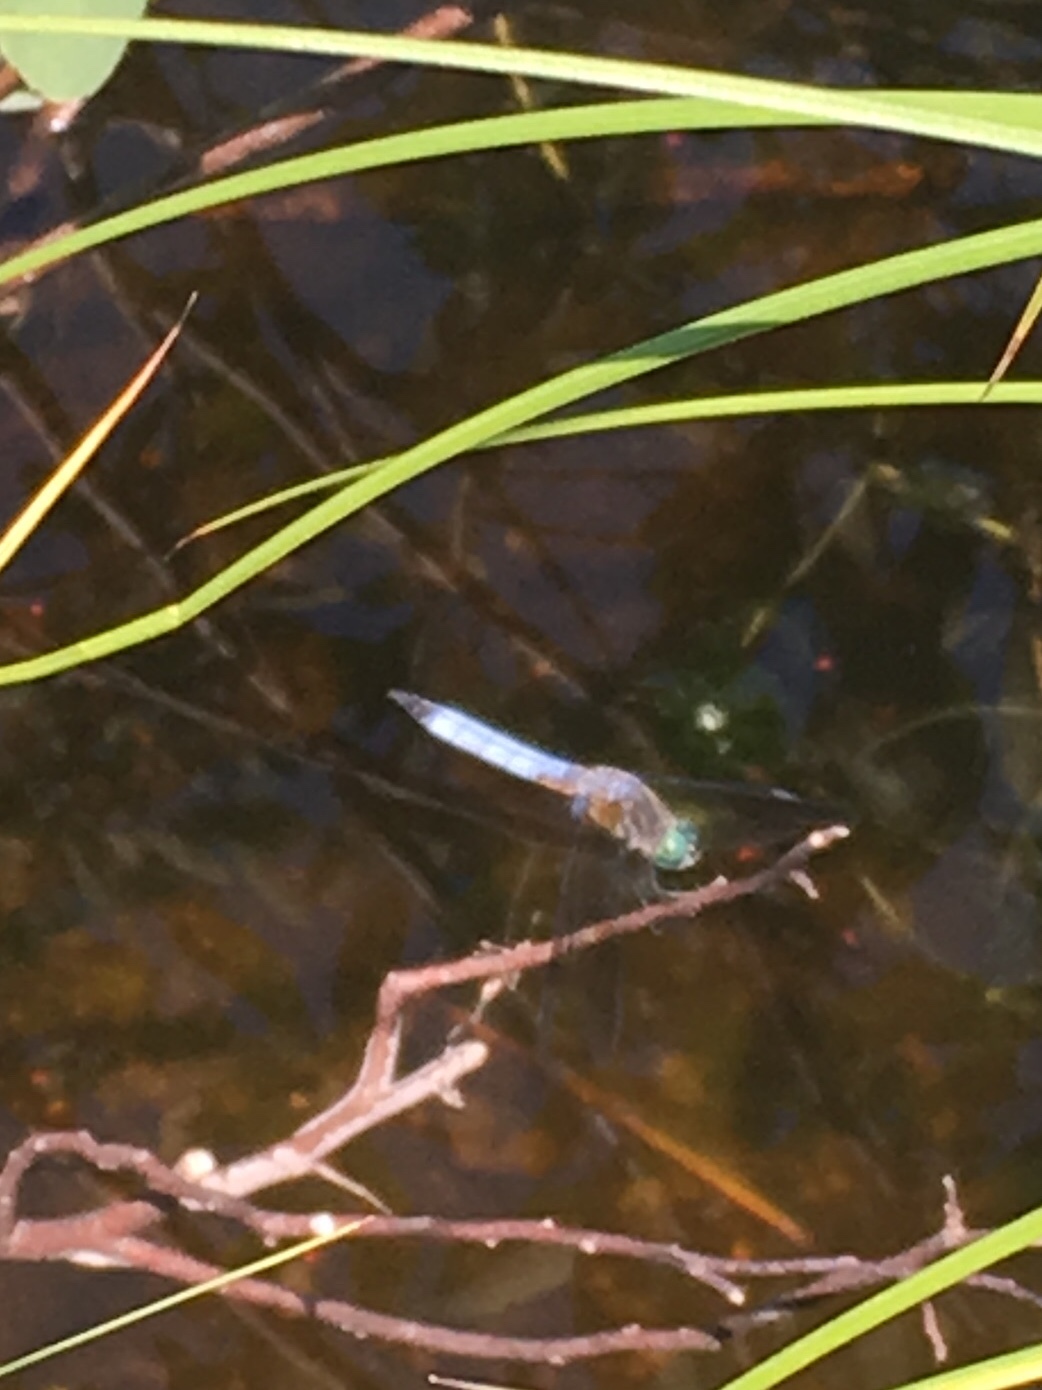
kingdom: Animalia
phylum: Arthropoda
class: Insecta
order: Odonata
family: Libellulidae
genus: Pachydiplax
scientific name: Pachydiplax longipennis
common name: Blue dasher
